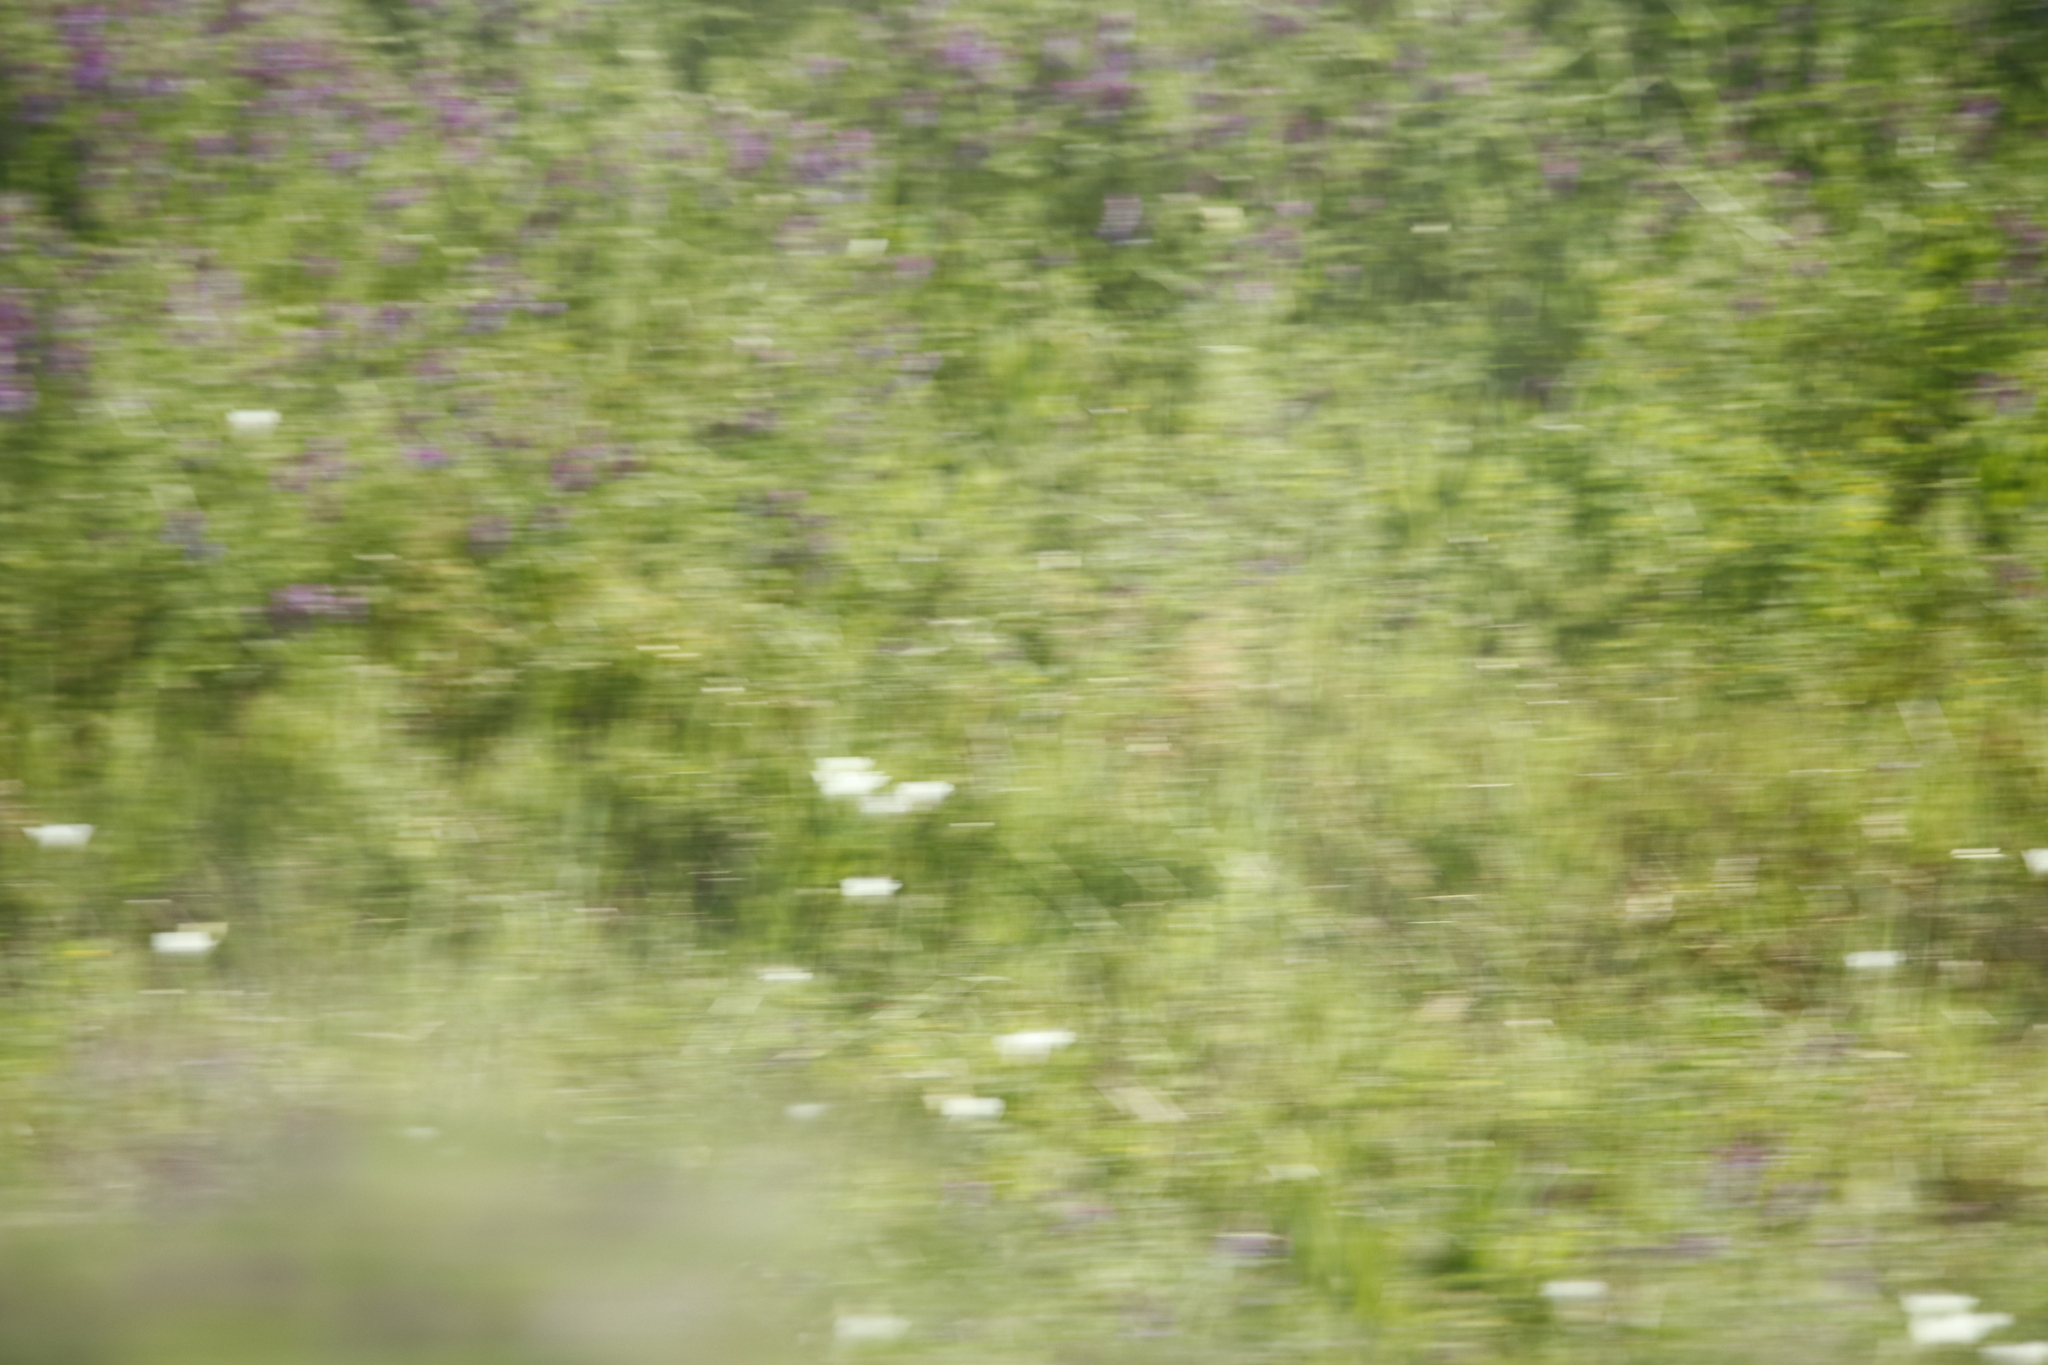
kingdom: Plantae
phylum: Tracheophyta
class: Liliopsida
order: Asparagales
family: Iridaceae
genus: Sparaxis
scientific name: Sparaxis bulbifera
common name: Harlequin-flower
